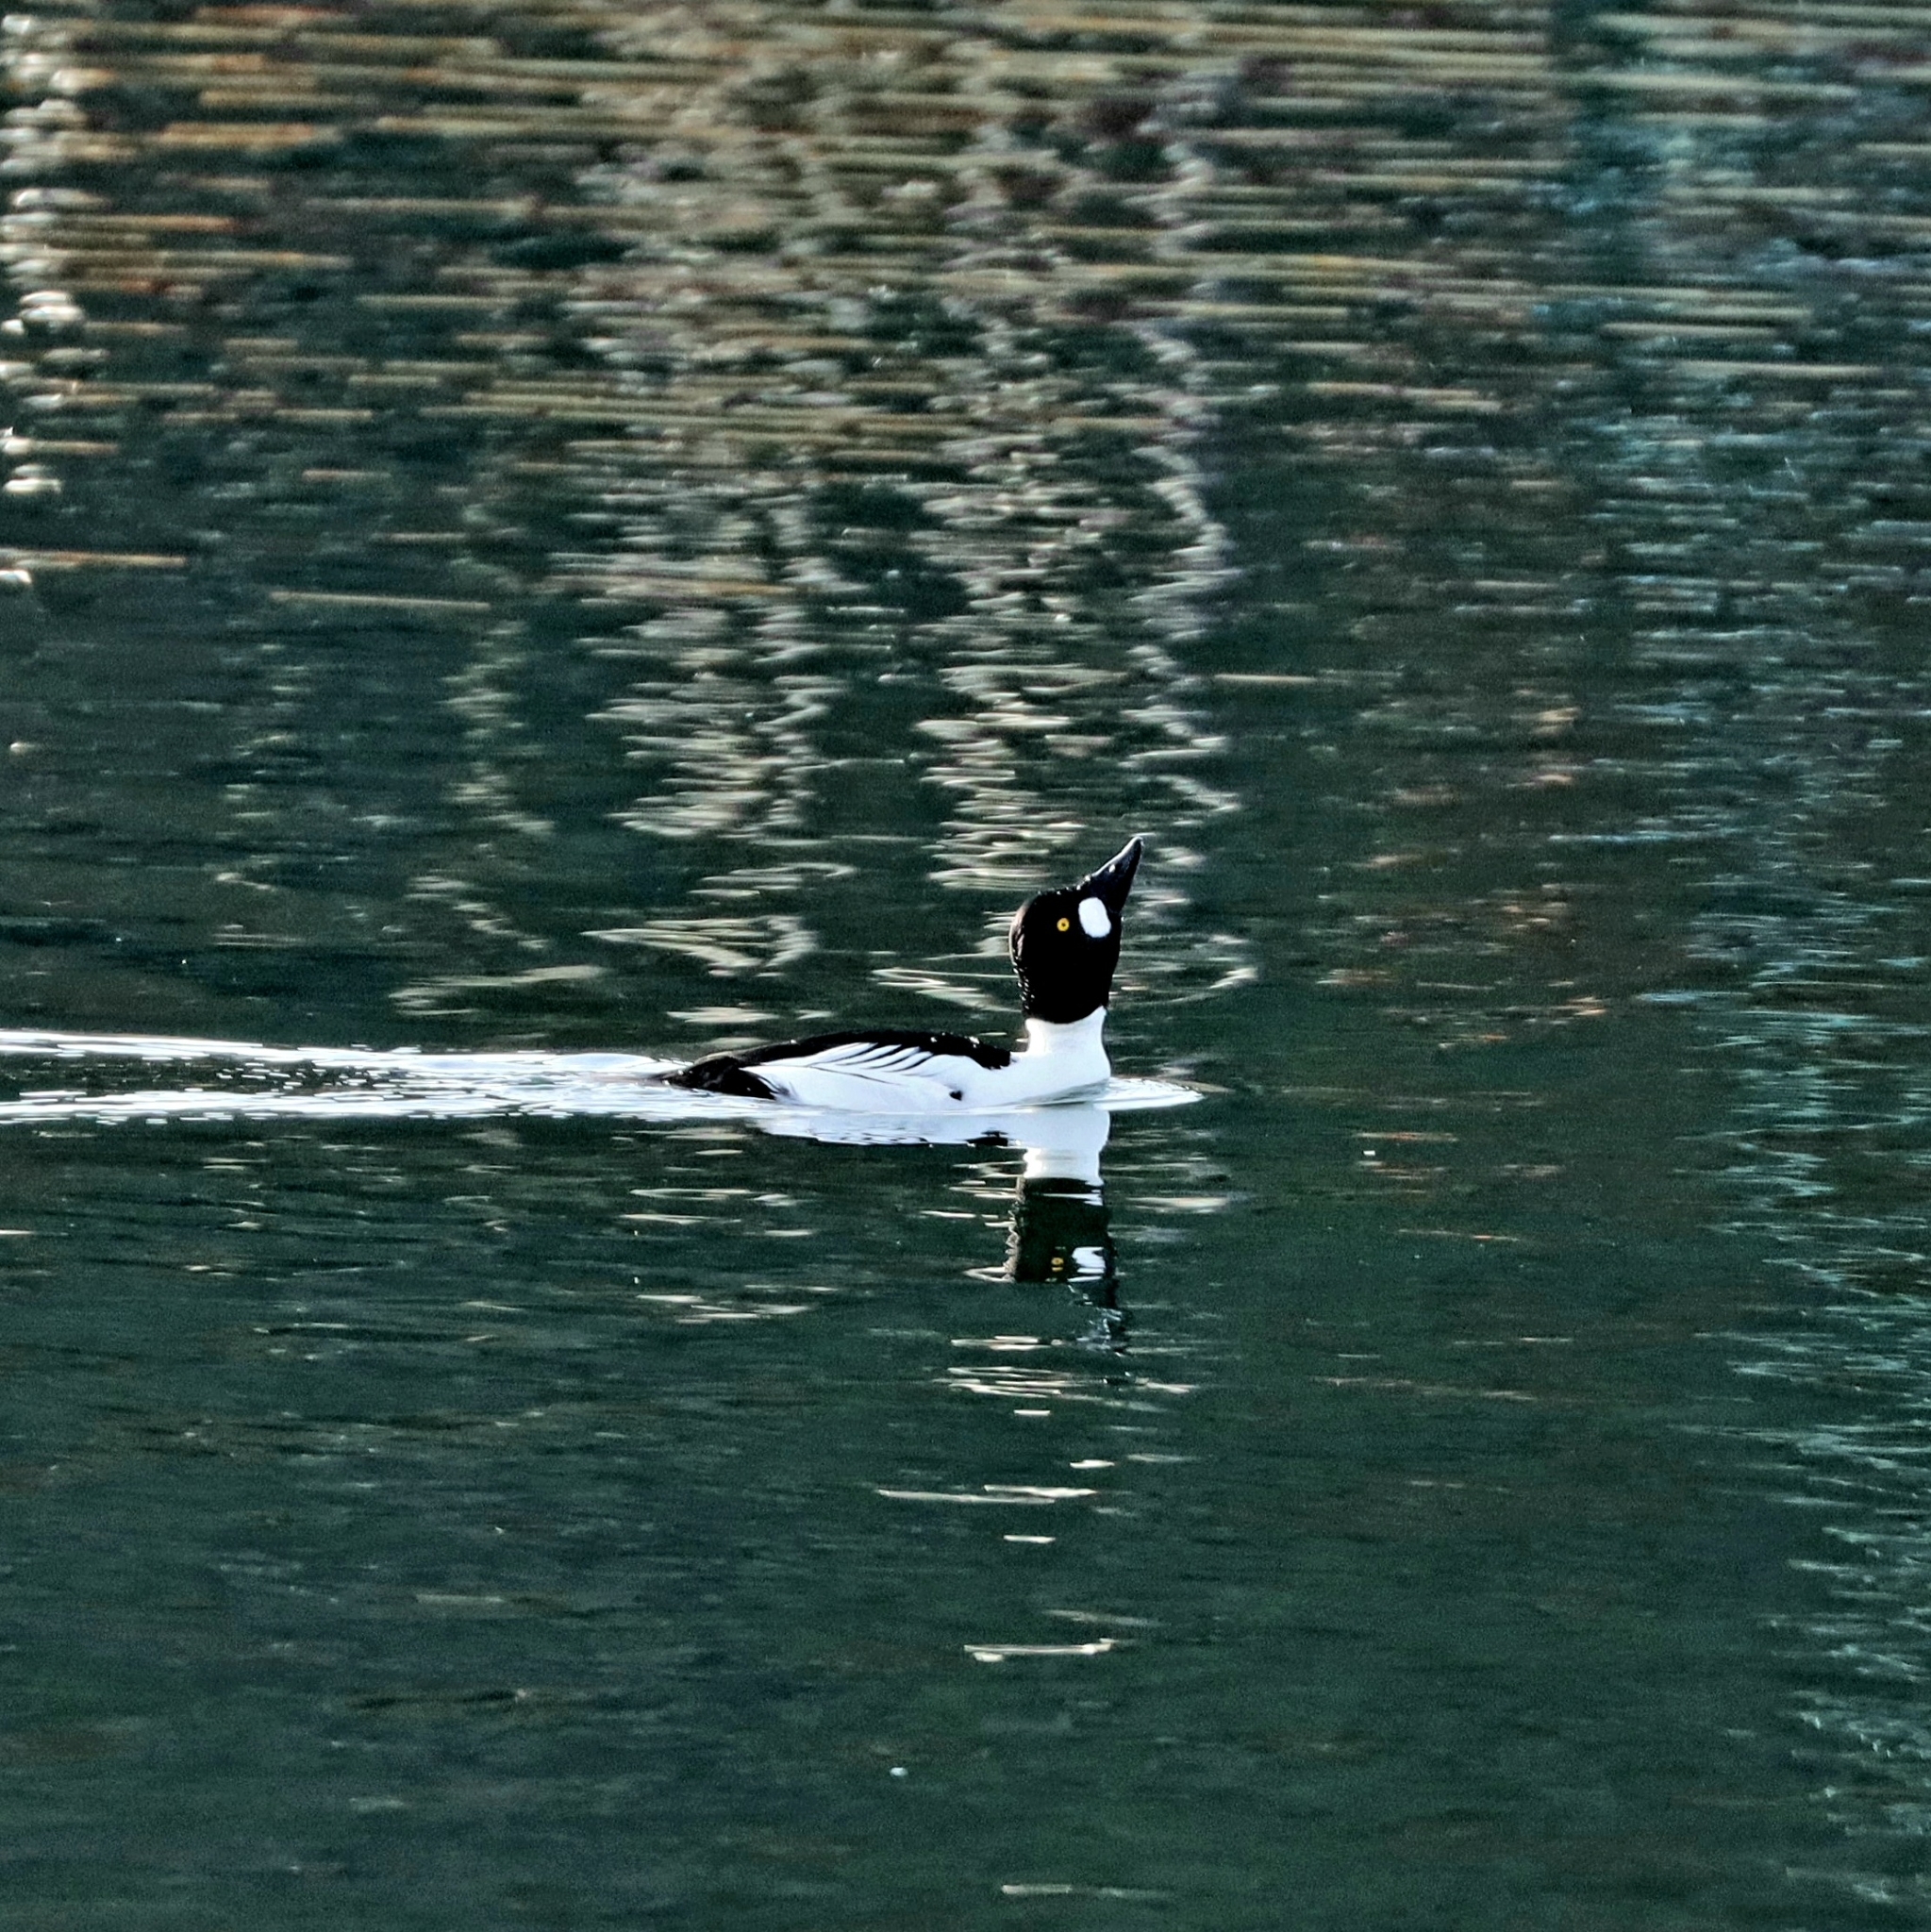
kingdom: Animalia
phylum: Chordata
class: Aves
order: Anseriformes
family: Anatidae
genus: Bucephala
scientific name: Bucephala clangula
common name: Common goldeneye
